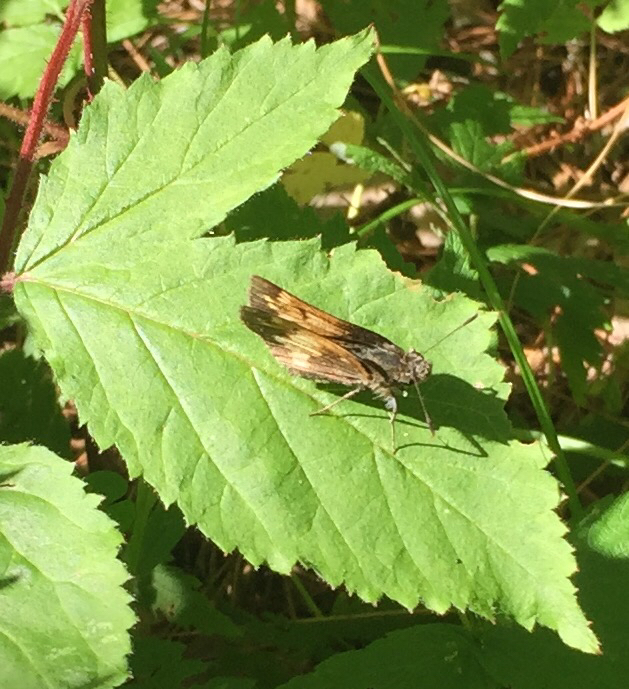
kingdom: Animalia
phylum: Arthropoda
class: Insecta
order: Lepidoptera
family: Hesperiidae
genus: Lon
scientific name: Lon hobomok
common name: Hobomok skipper
